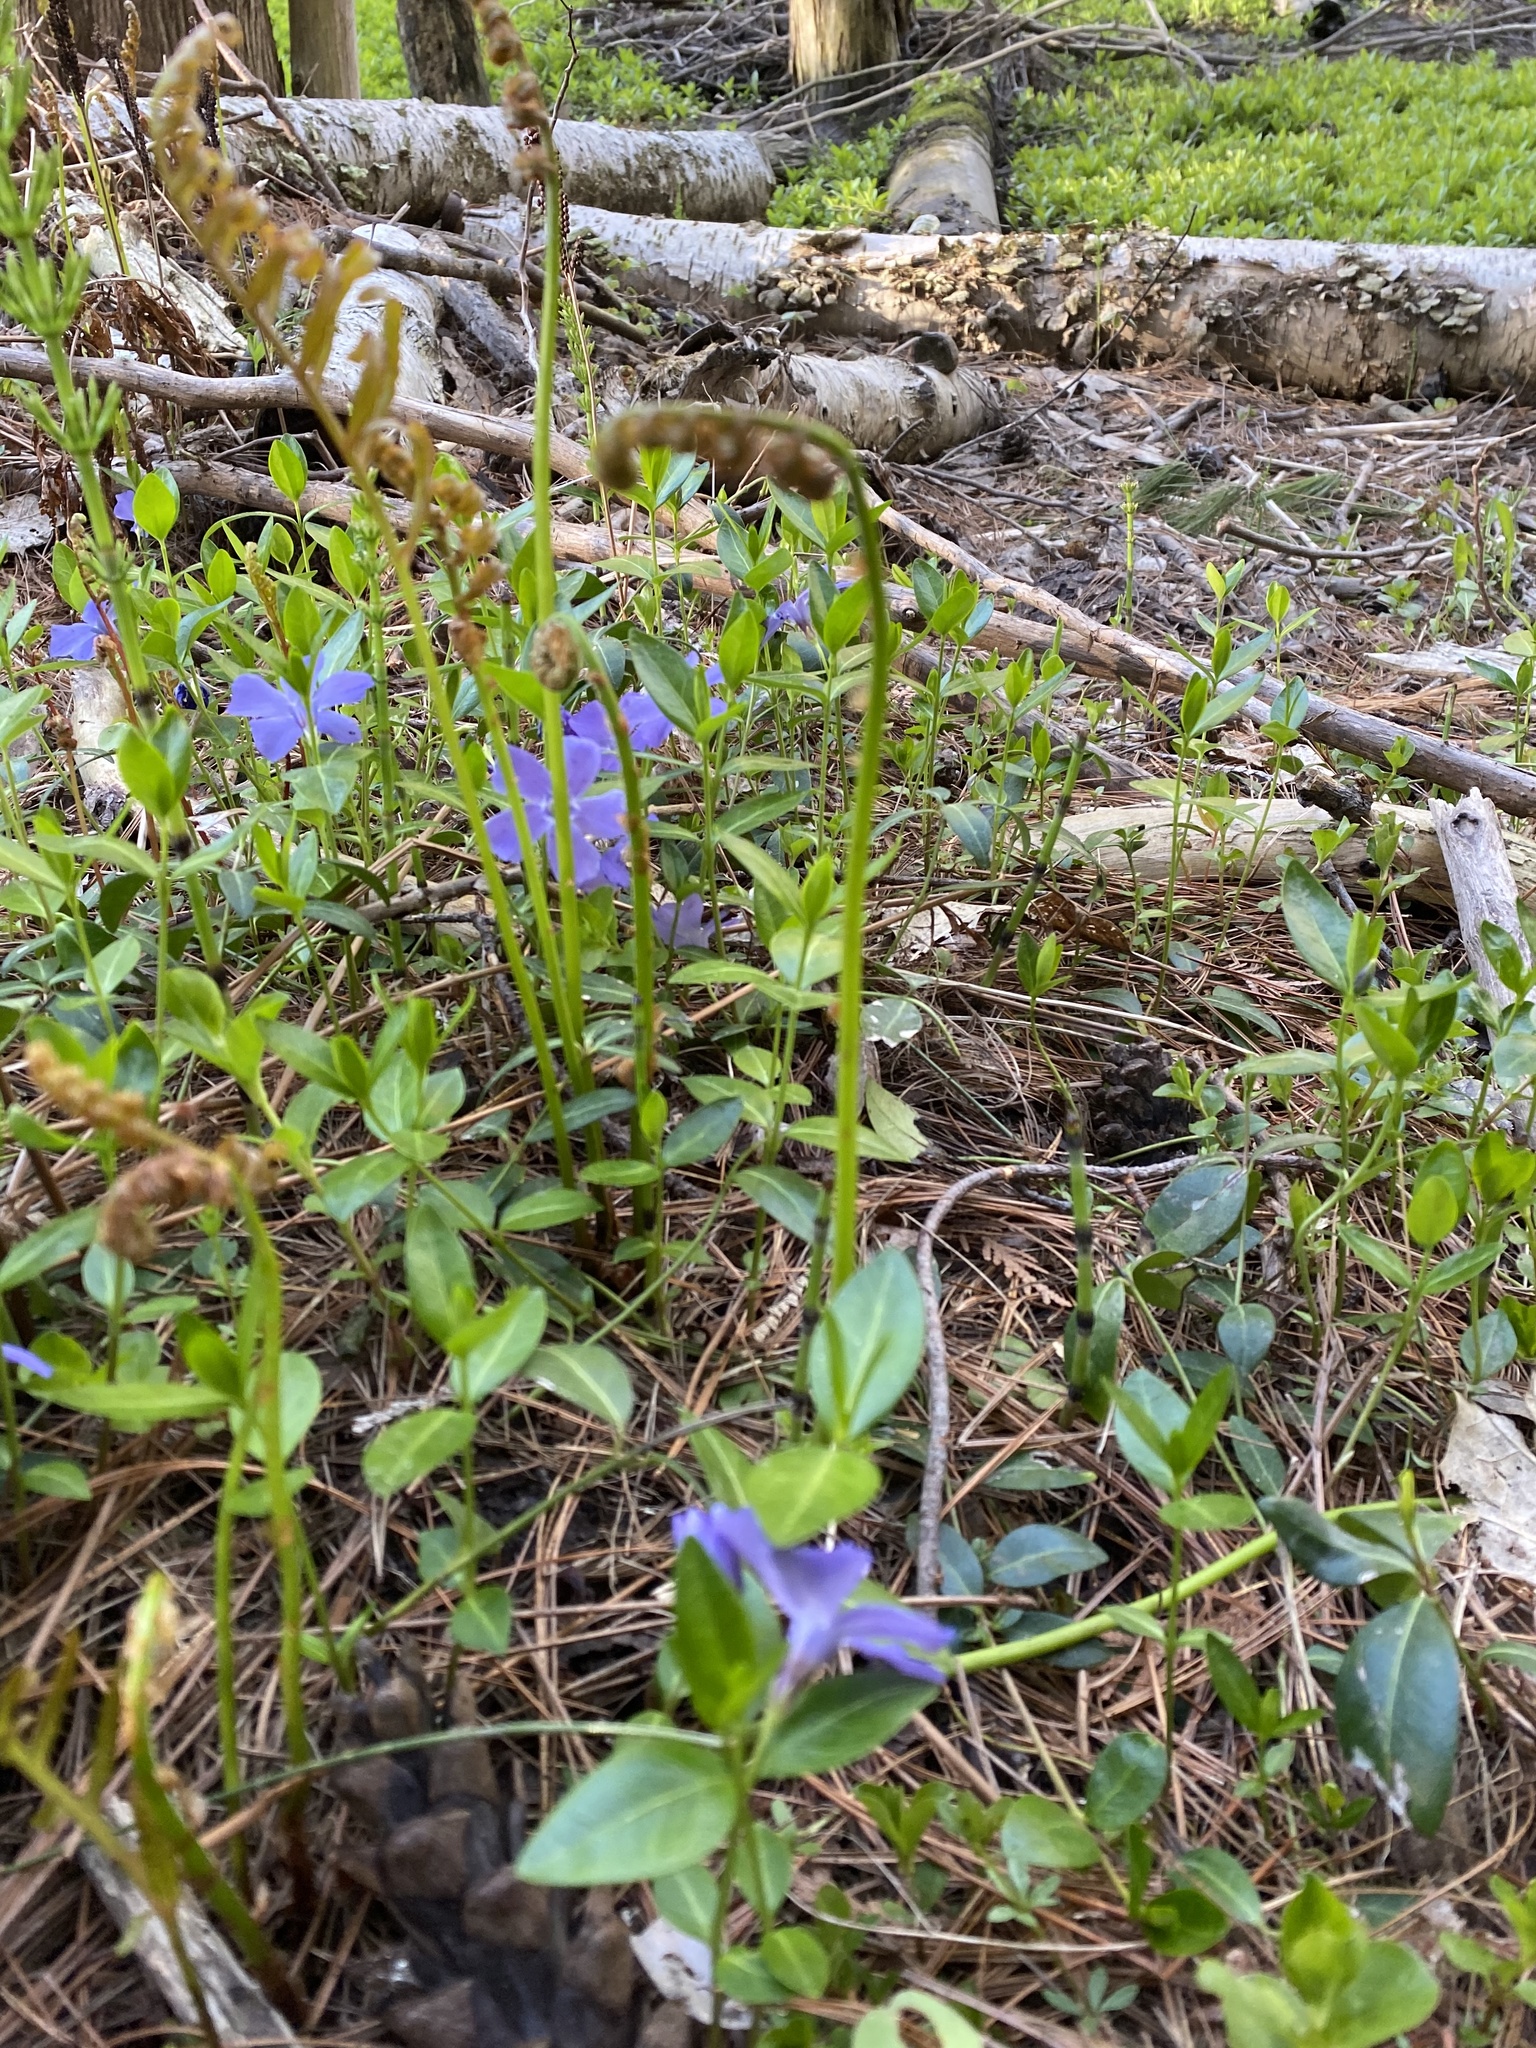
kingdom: Plantae
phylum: Tracheophyta
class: Magnoliopsida
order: Gentianales
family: Apocynaceae
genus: Vinca
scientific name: Vinca minor
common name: Lesser periwinkle
